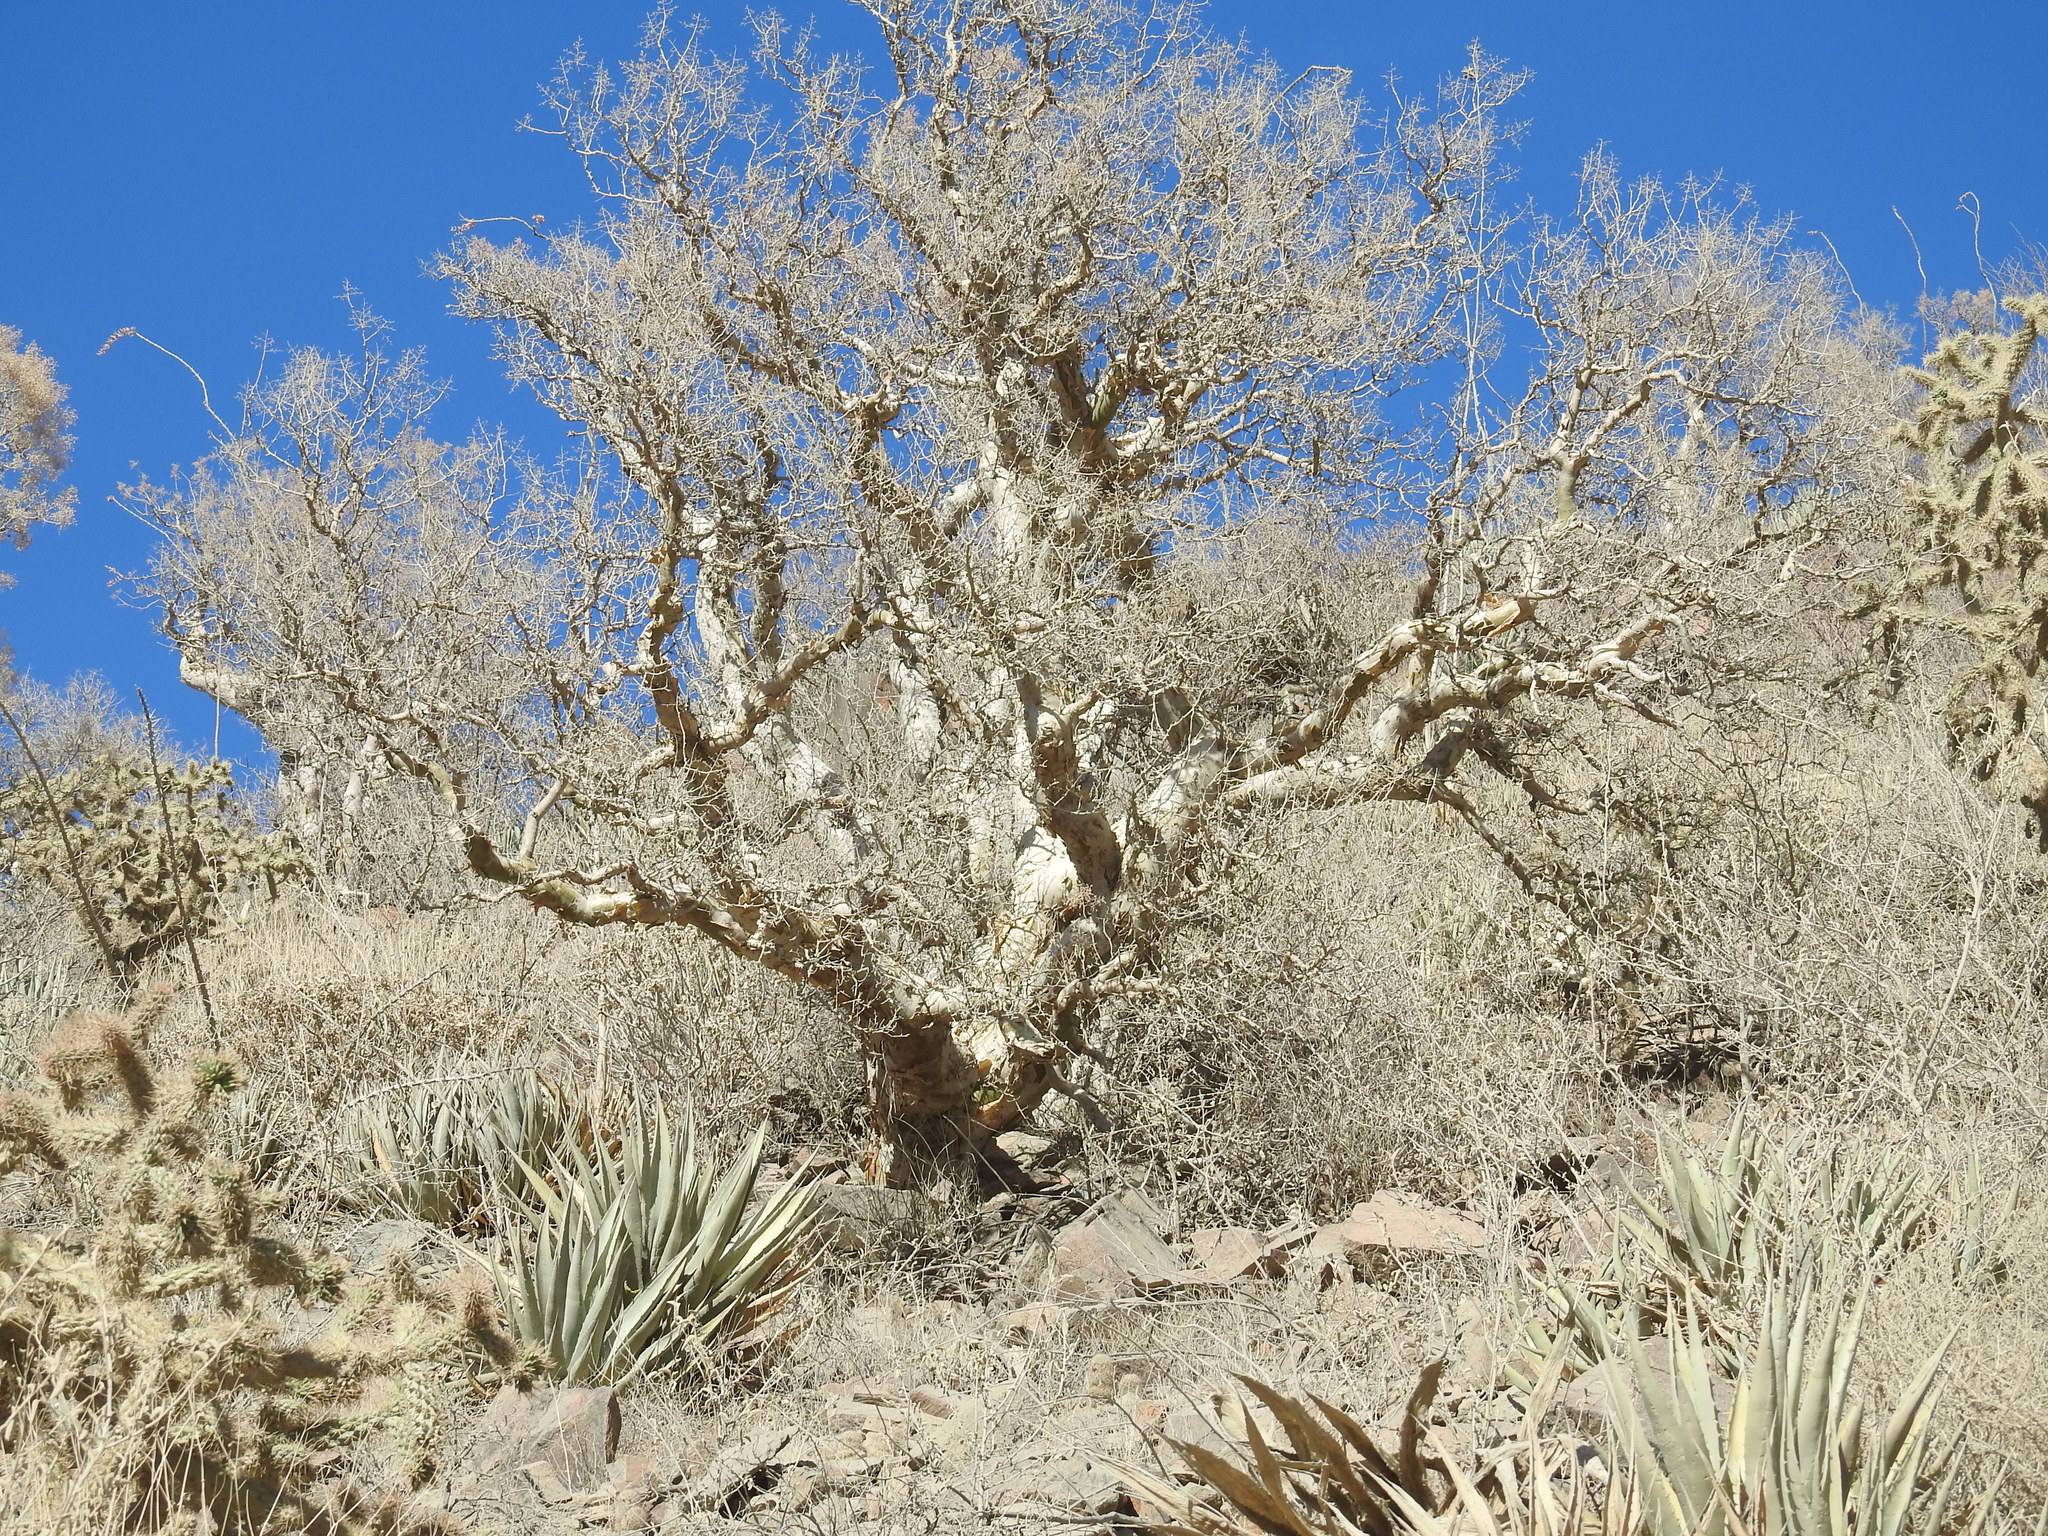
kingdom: Plantae
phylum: Tracheophyta
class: Magnoliopsida
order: Sapindales
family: Anacardiaceae
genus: Pachycormus
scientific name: Pachycormus discolor
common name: Succulent elephant trees
